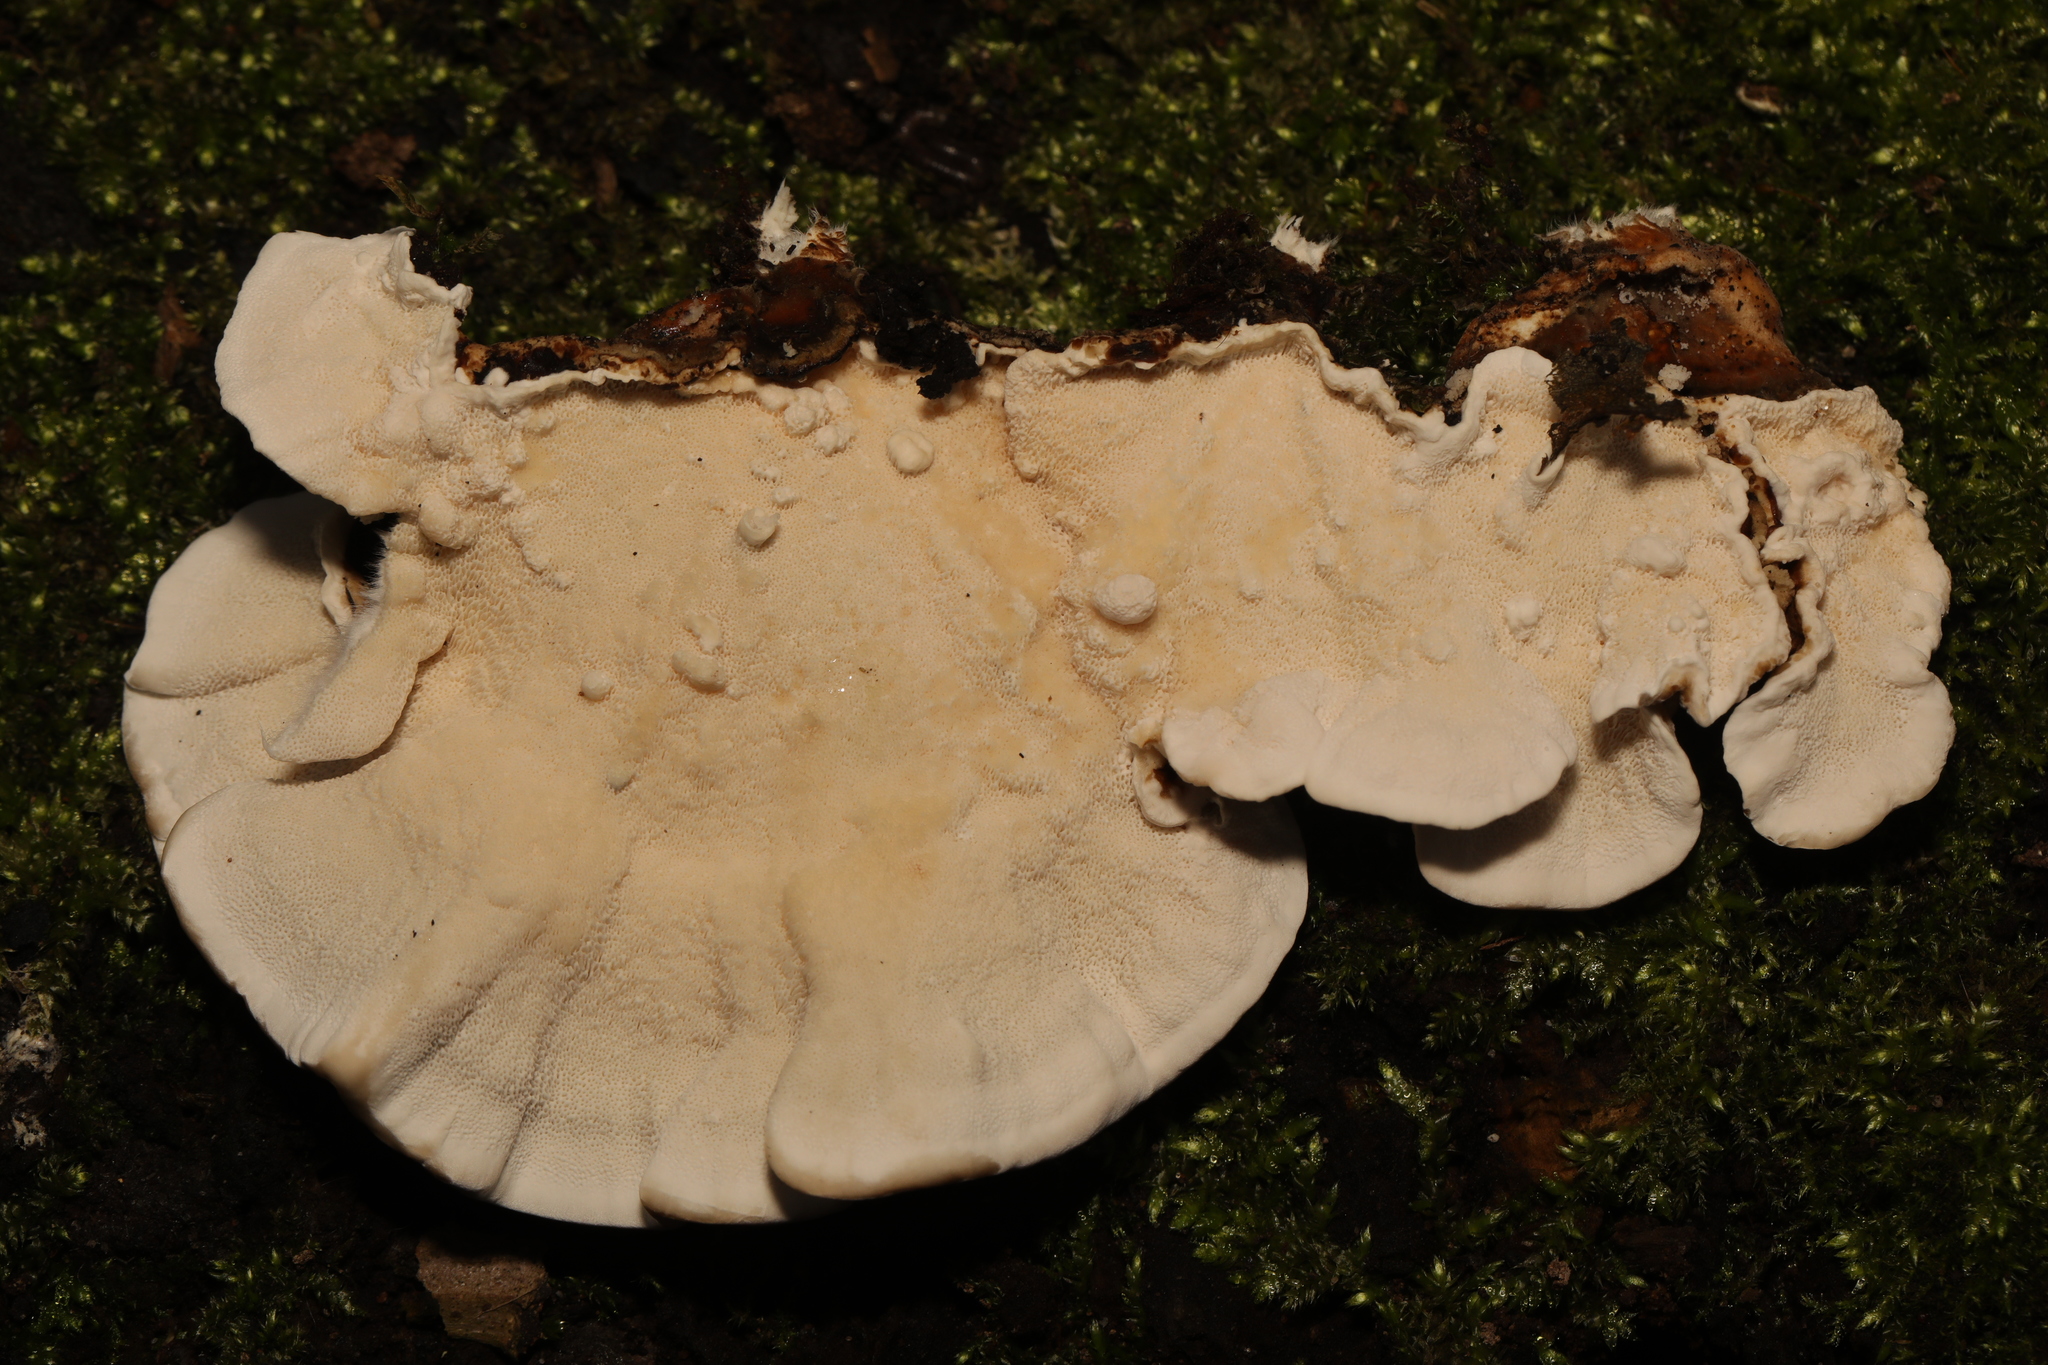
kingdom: Fungi
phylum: Basidiomycota
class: Agaricomycetes
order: Polyporales
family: Polyporaceae
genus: Trametes
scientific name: Trametes versicolor
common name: Turkeytail
